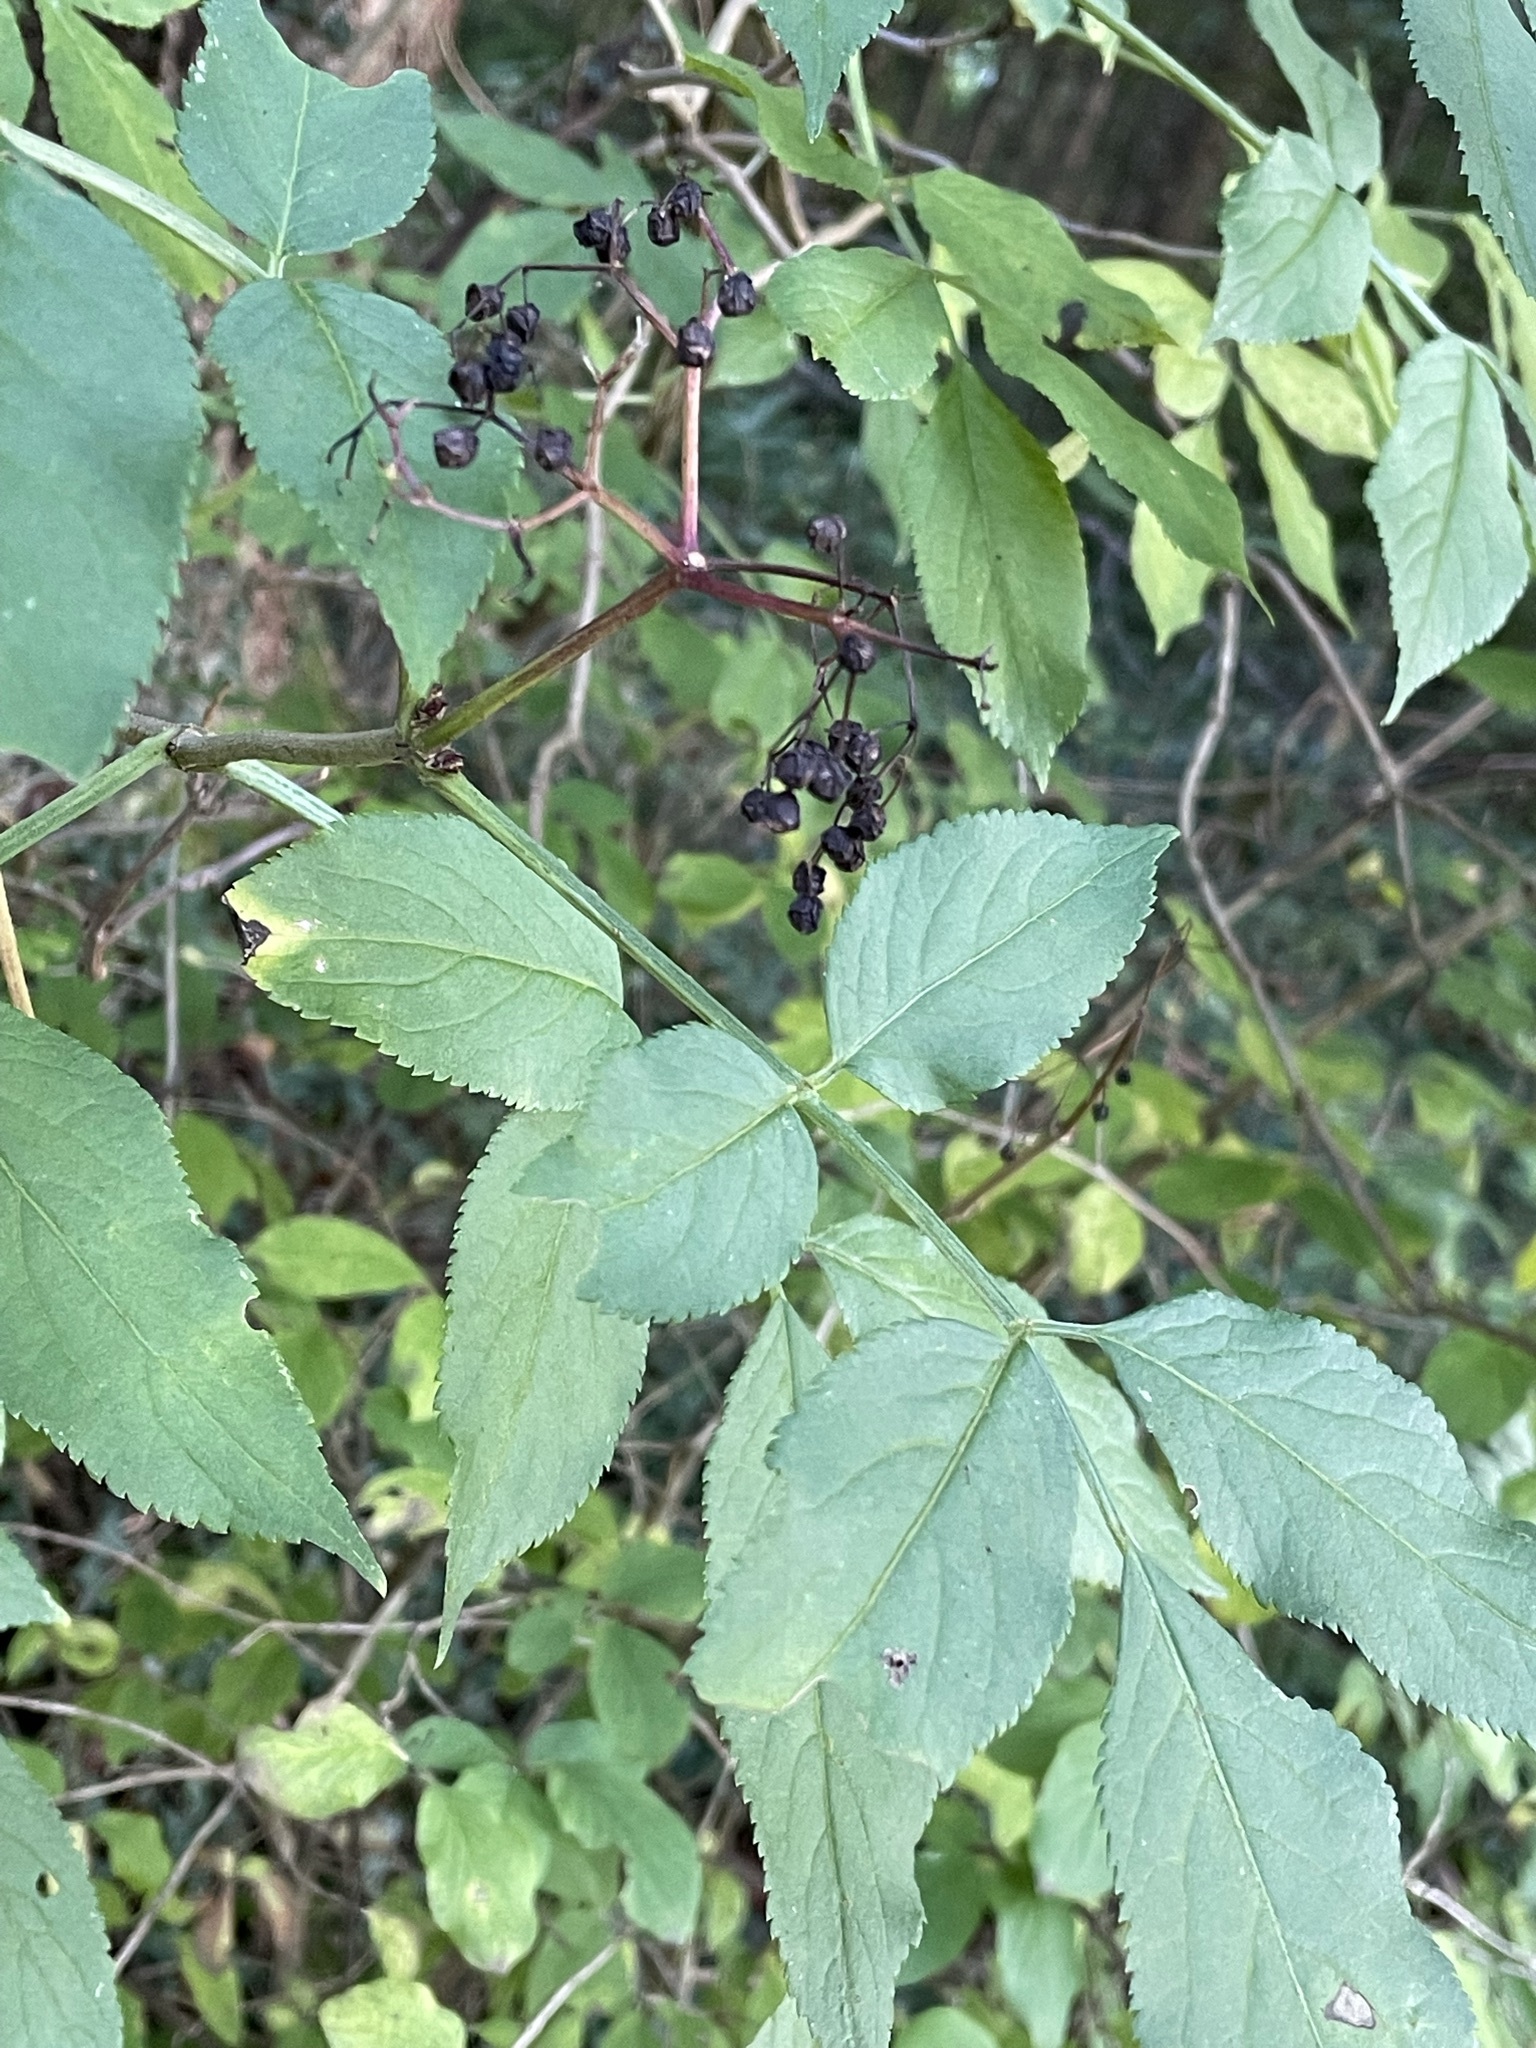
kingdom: Plantae
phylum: Tracheophyta
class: Magnoliopsida
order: Dipsacales
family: Viburnaceae
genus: Sambucus
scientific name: Sambucus nigra
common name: Elder
